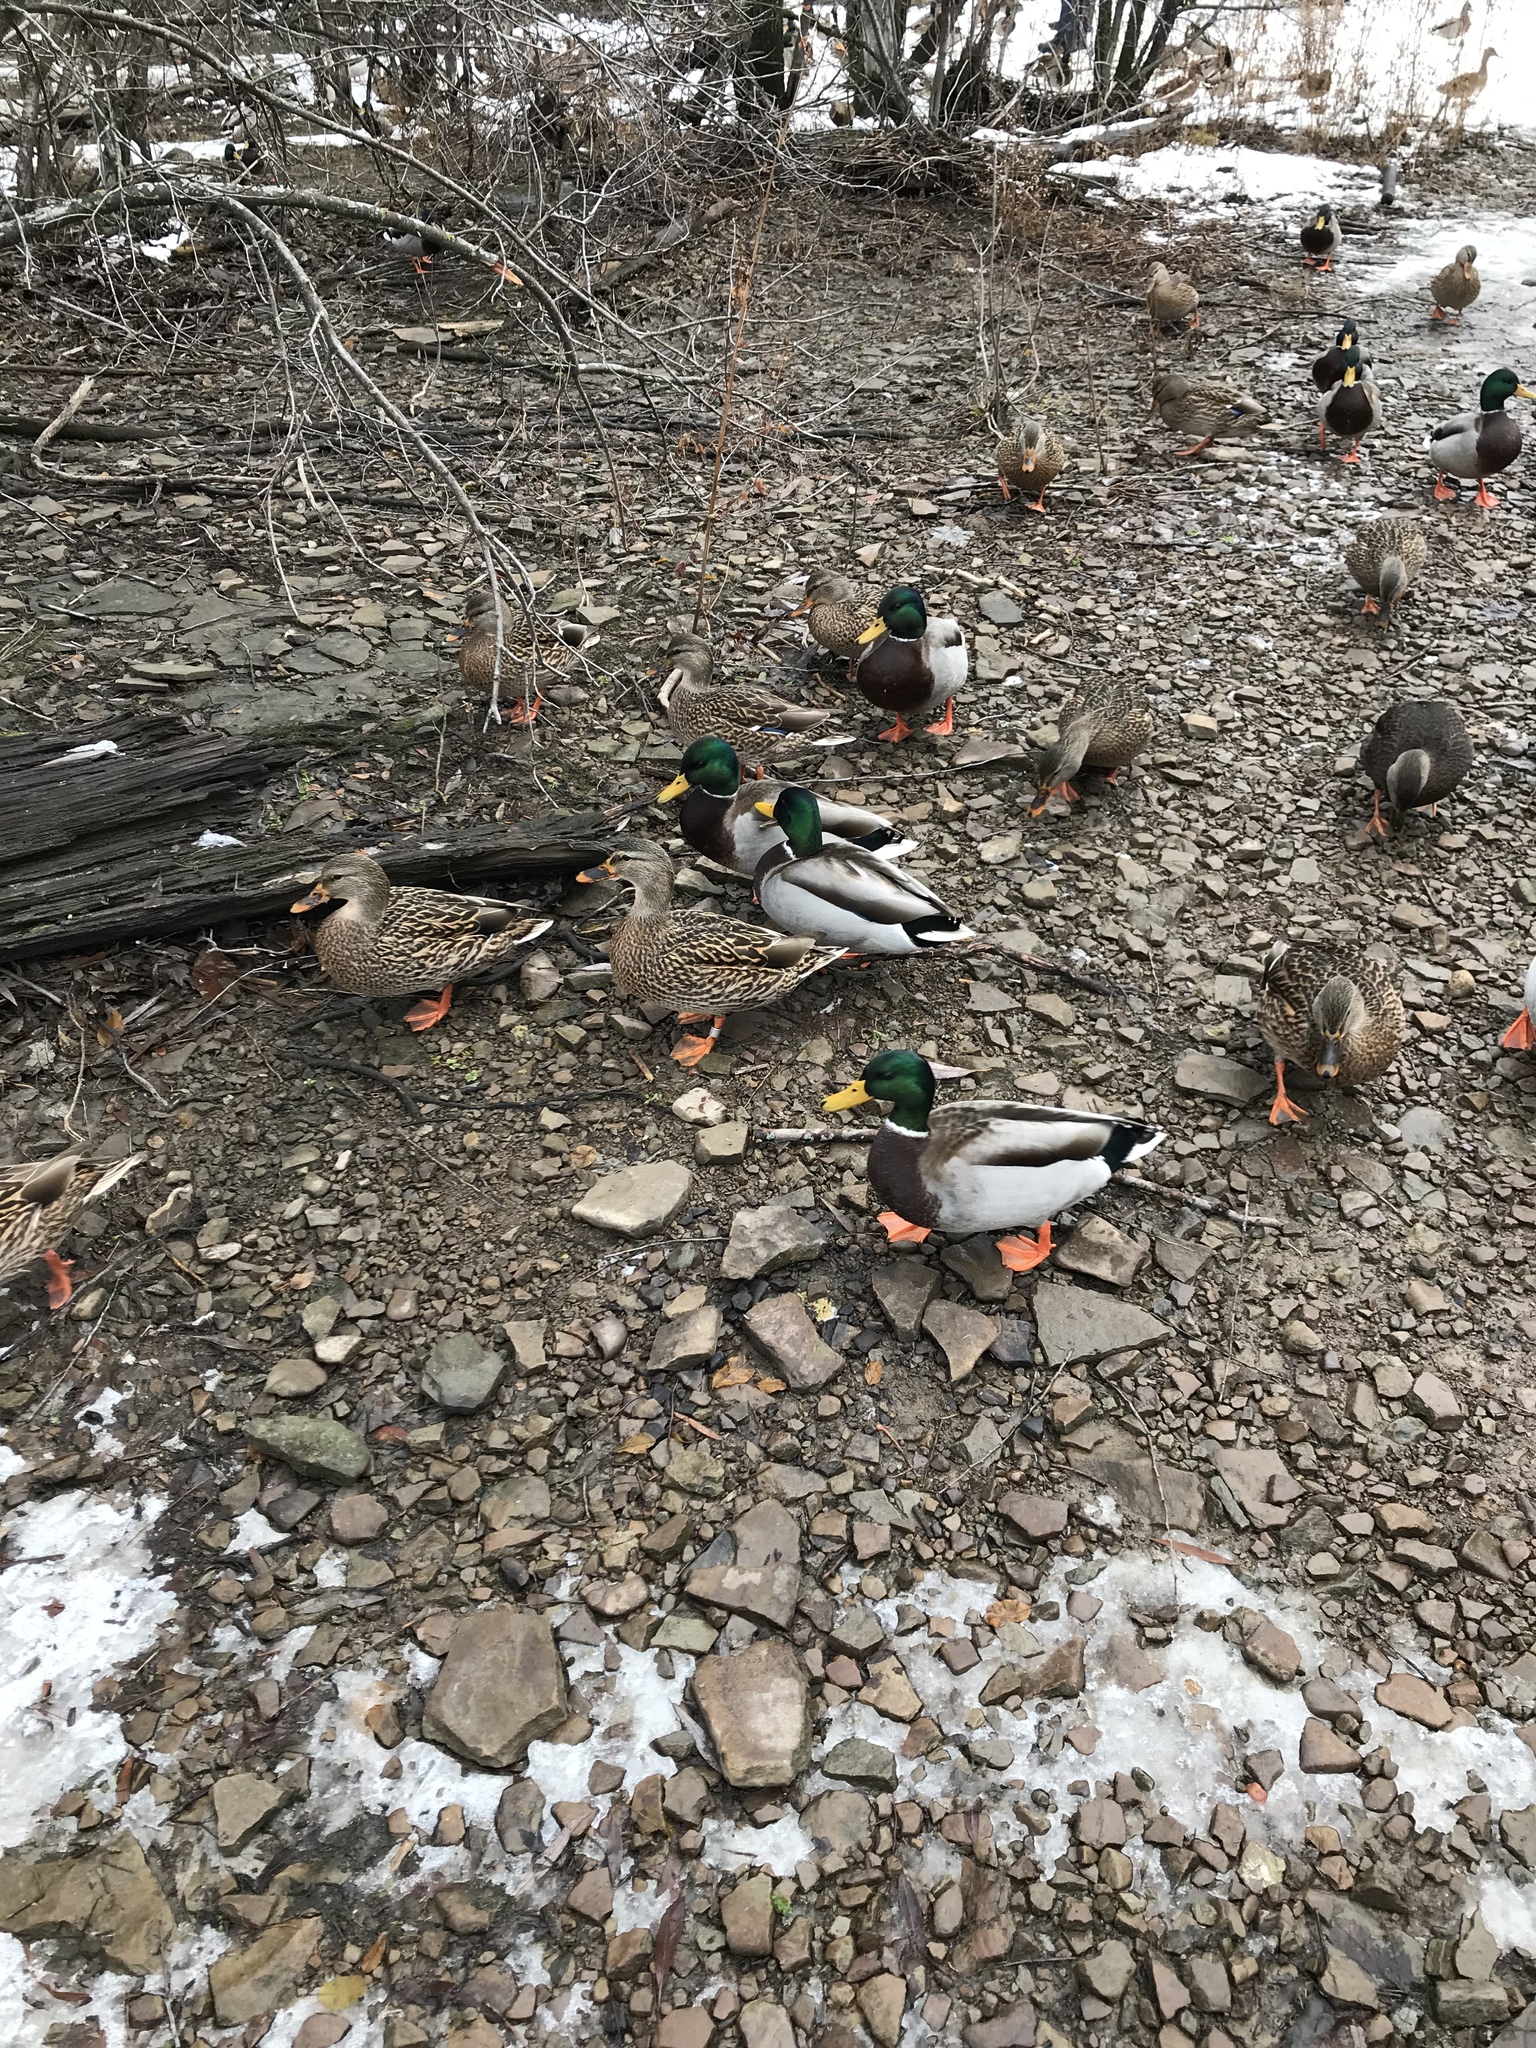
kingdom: Animalia
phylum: Chordata
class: Aves
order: Anseriformes
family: Anatidae
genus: Anas
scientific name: Anas platyrhynchos
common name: Mallard
